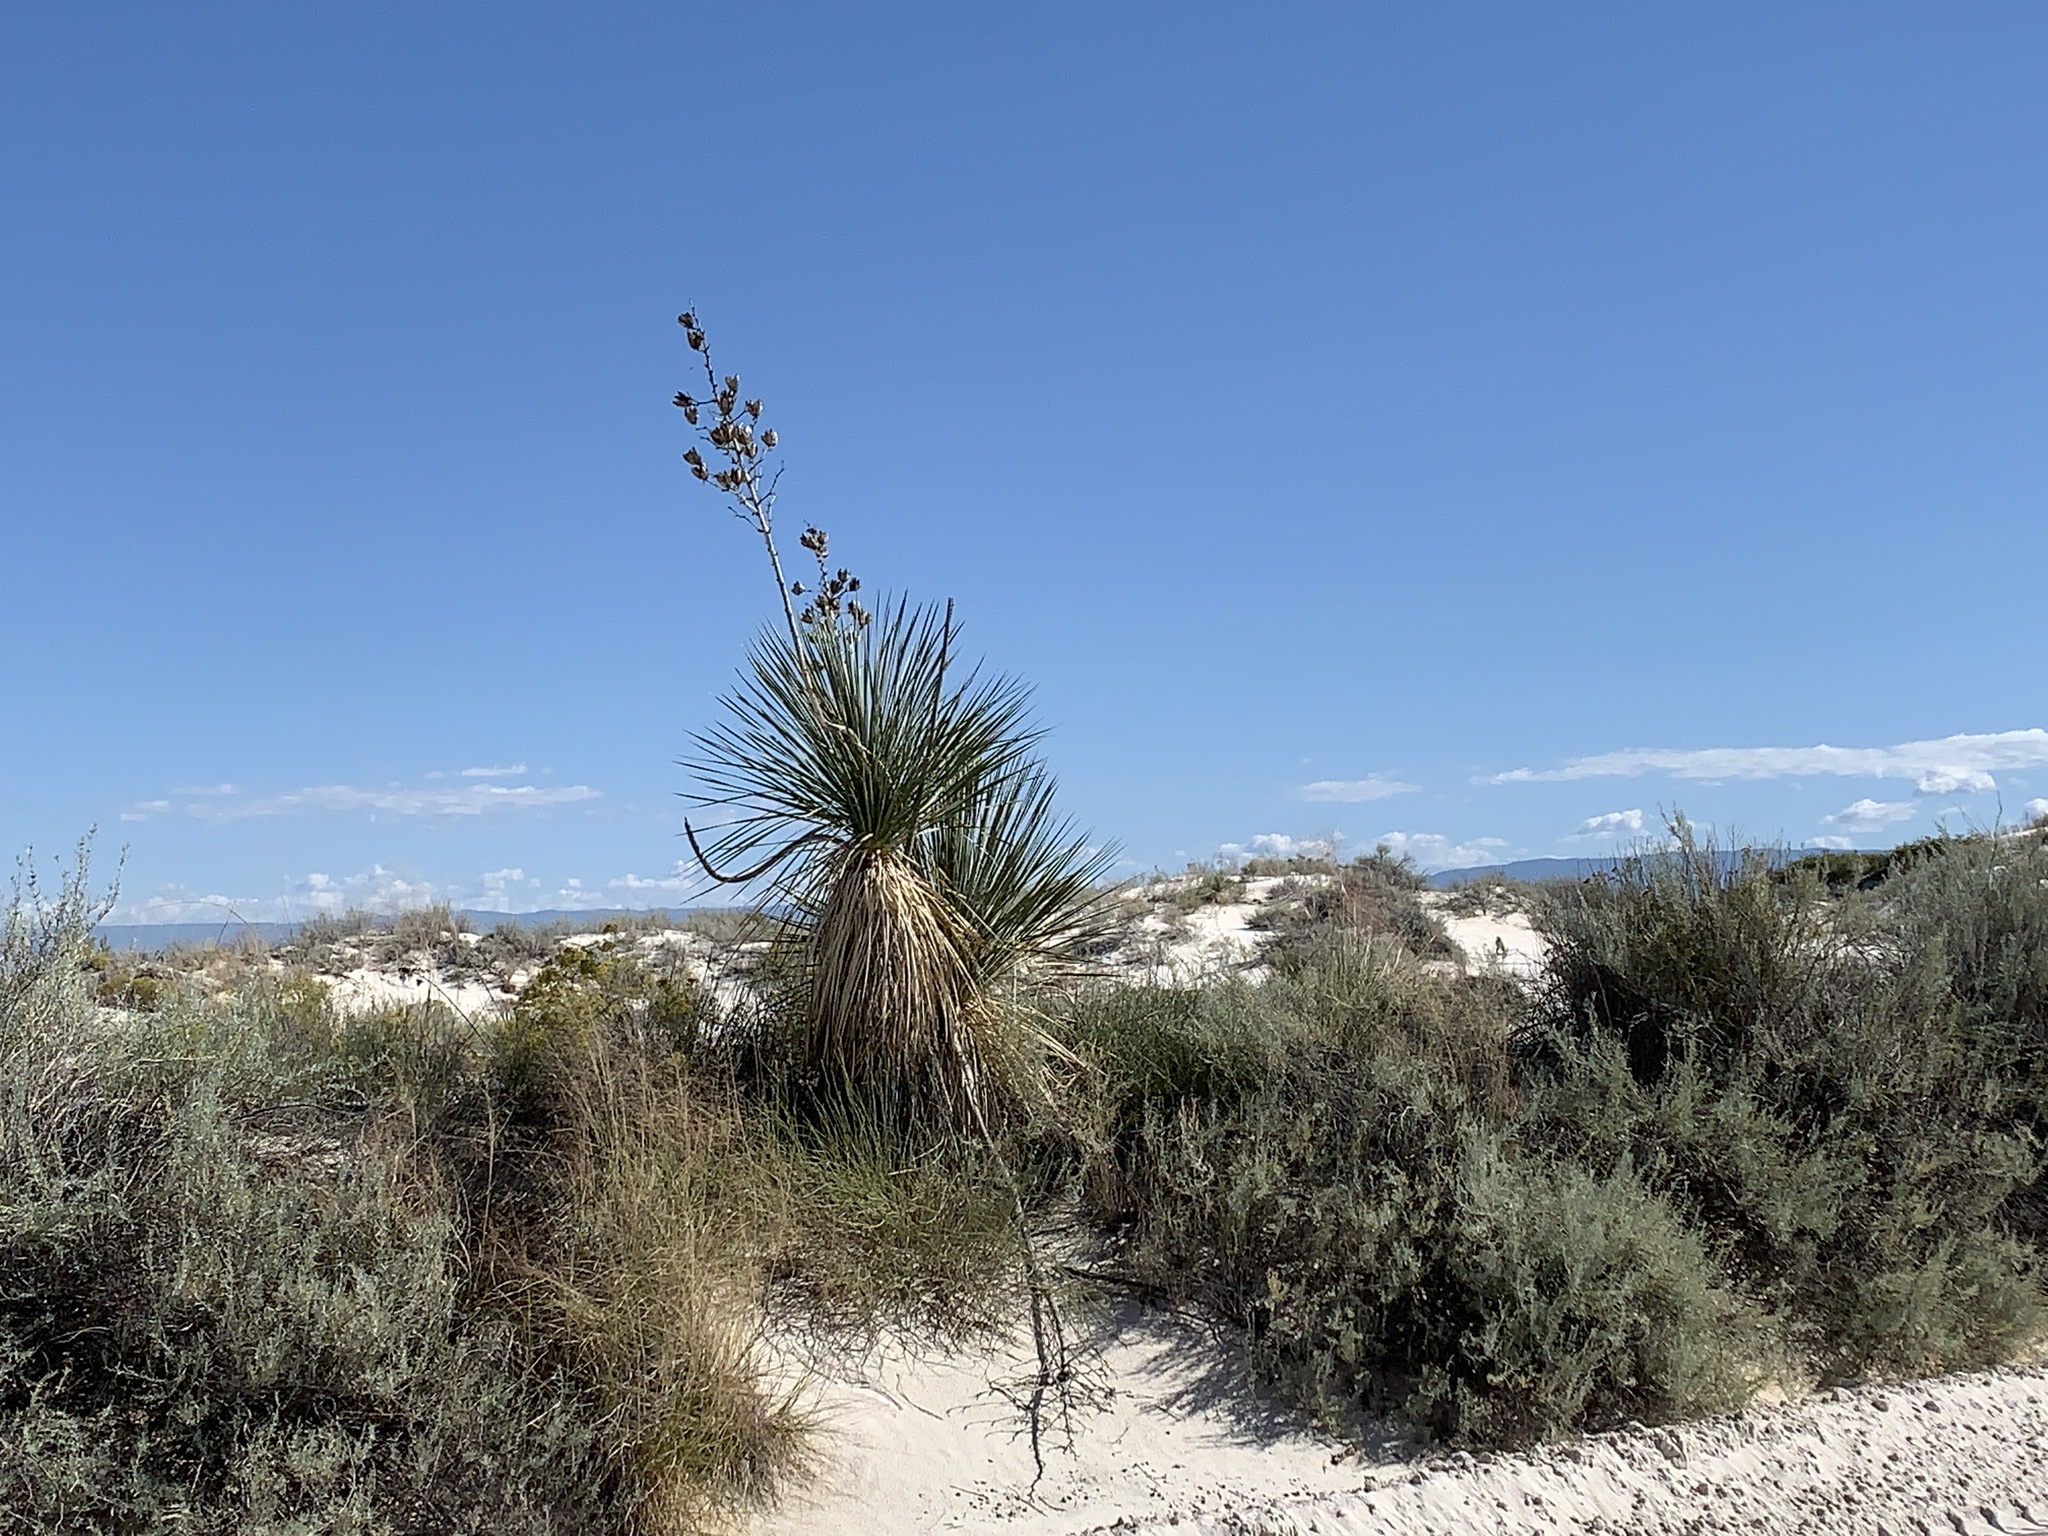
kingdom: Plantae
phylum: Tracheophyta
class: Liliopsida
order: Asparagales
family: Asparagaceae
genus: Yucca
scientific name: Yucca elata
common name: Palmella
